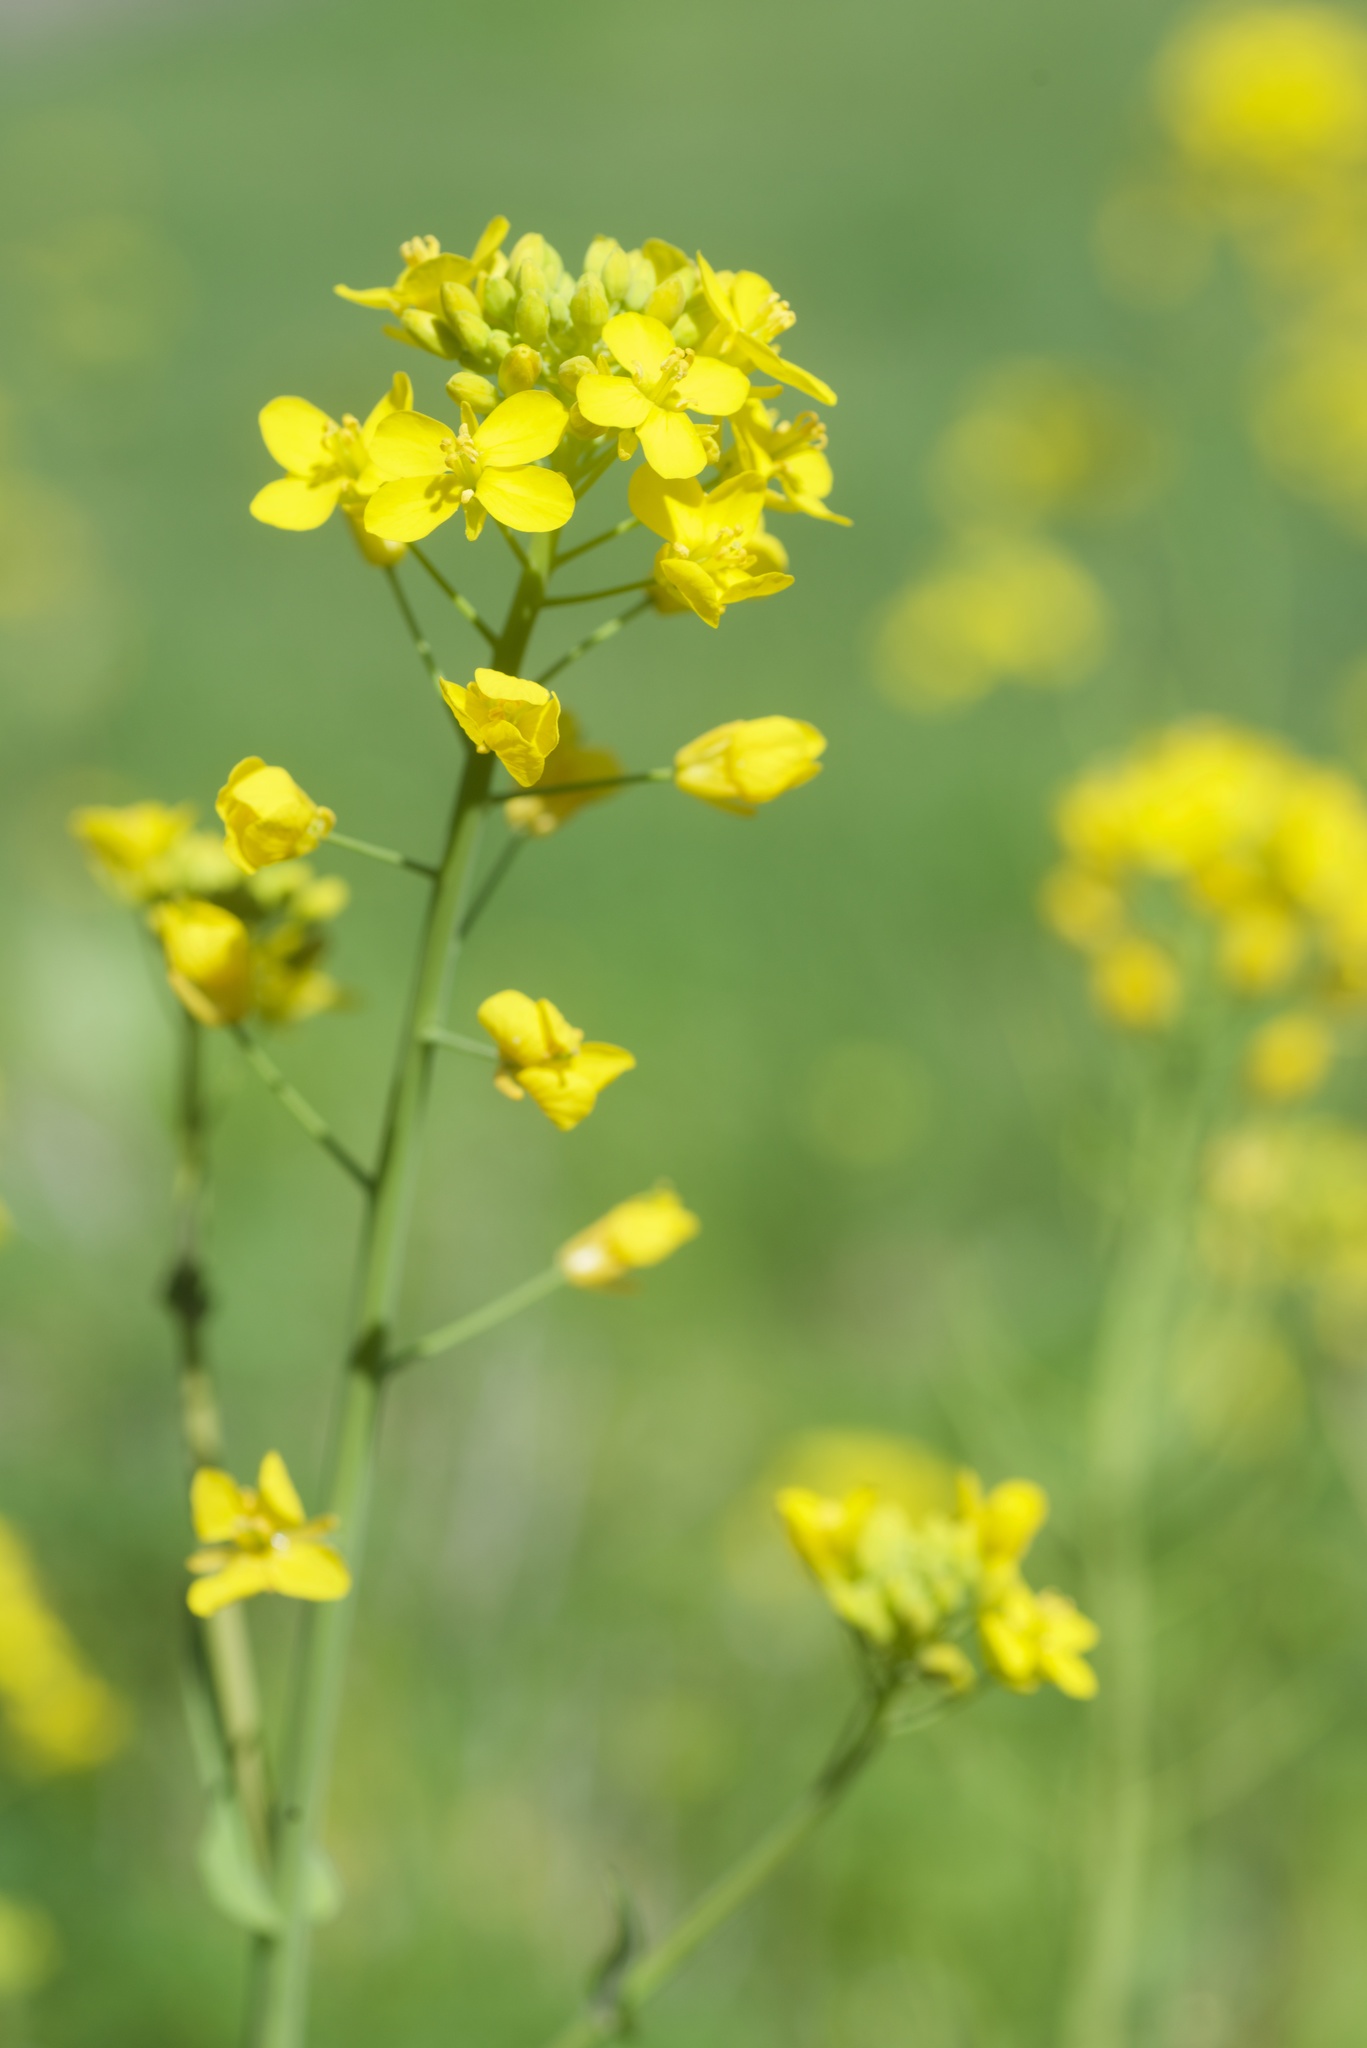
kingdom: Plantae
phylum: Tracheophyta
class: Magnoliopsida
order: Brassicales
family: Brassicaceae
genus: Brassica
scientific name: Brassica rapa
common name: Field mustard
